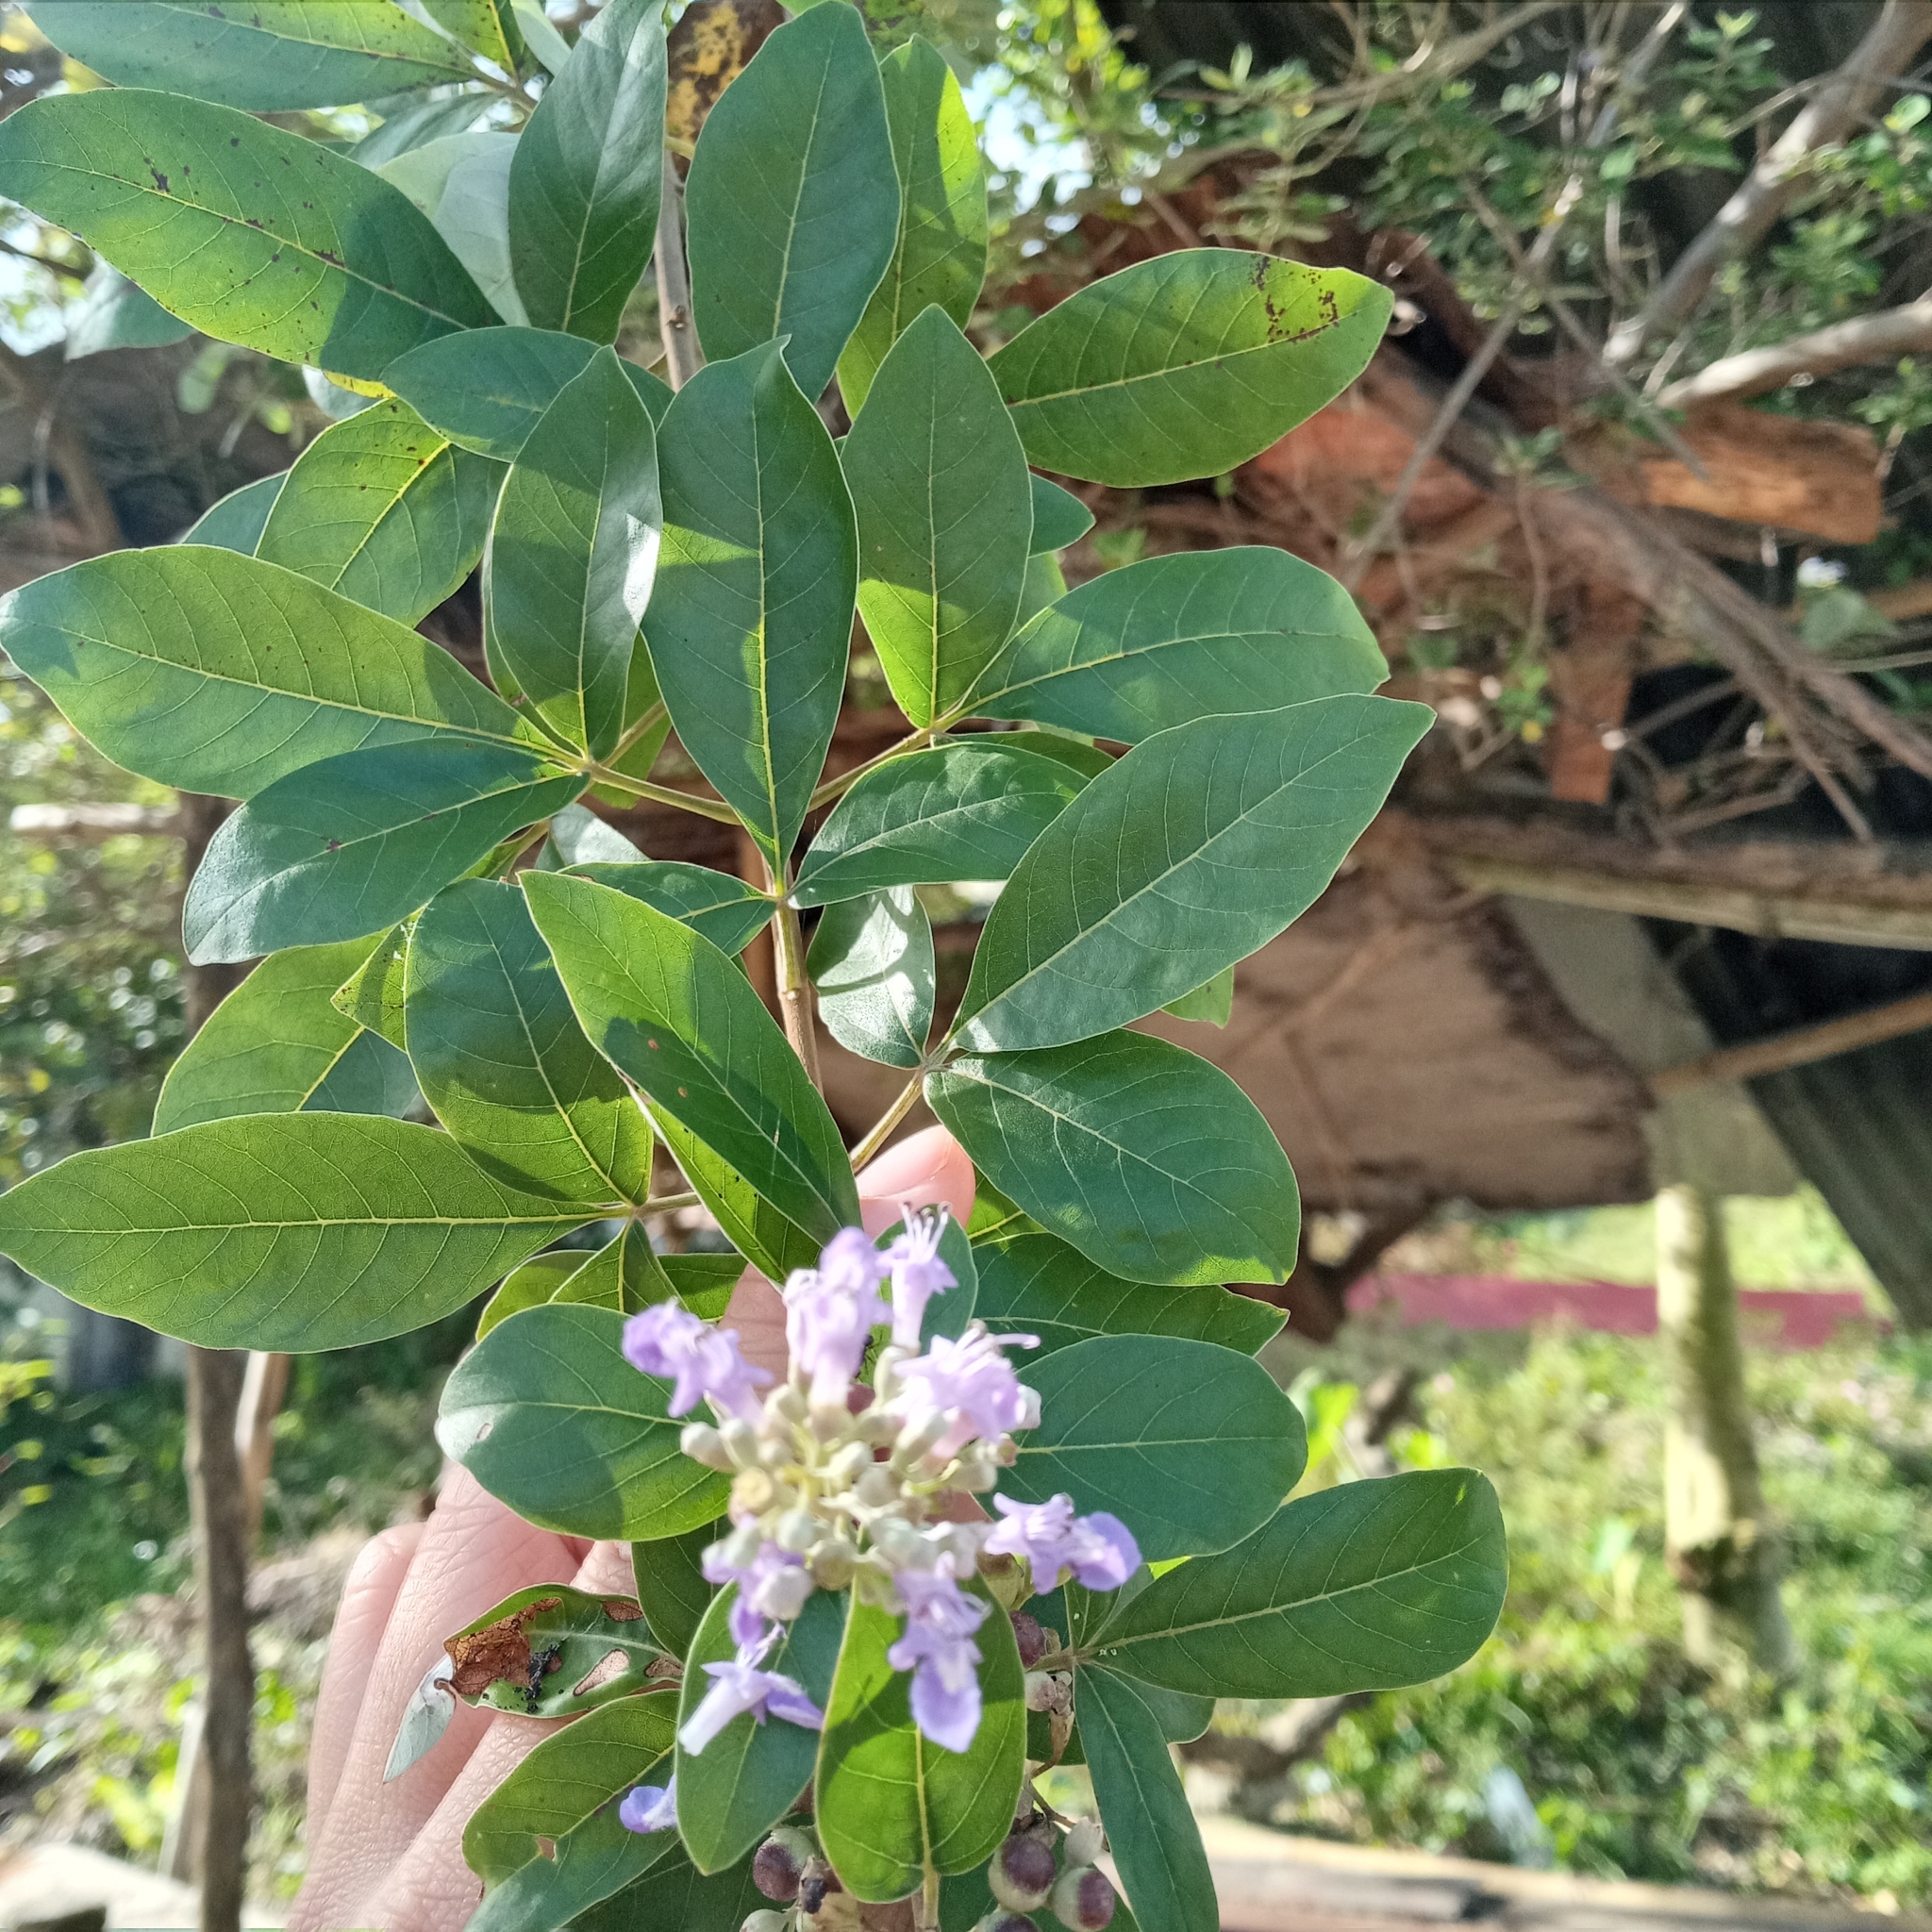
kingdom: Plantae
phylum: Tracheophyta
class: Magnoliopsida
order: Lamiales
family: Lamiaceae
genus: Vitex
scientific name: Vitex trifolia
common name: Simpleleaf chastetree
